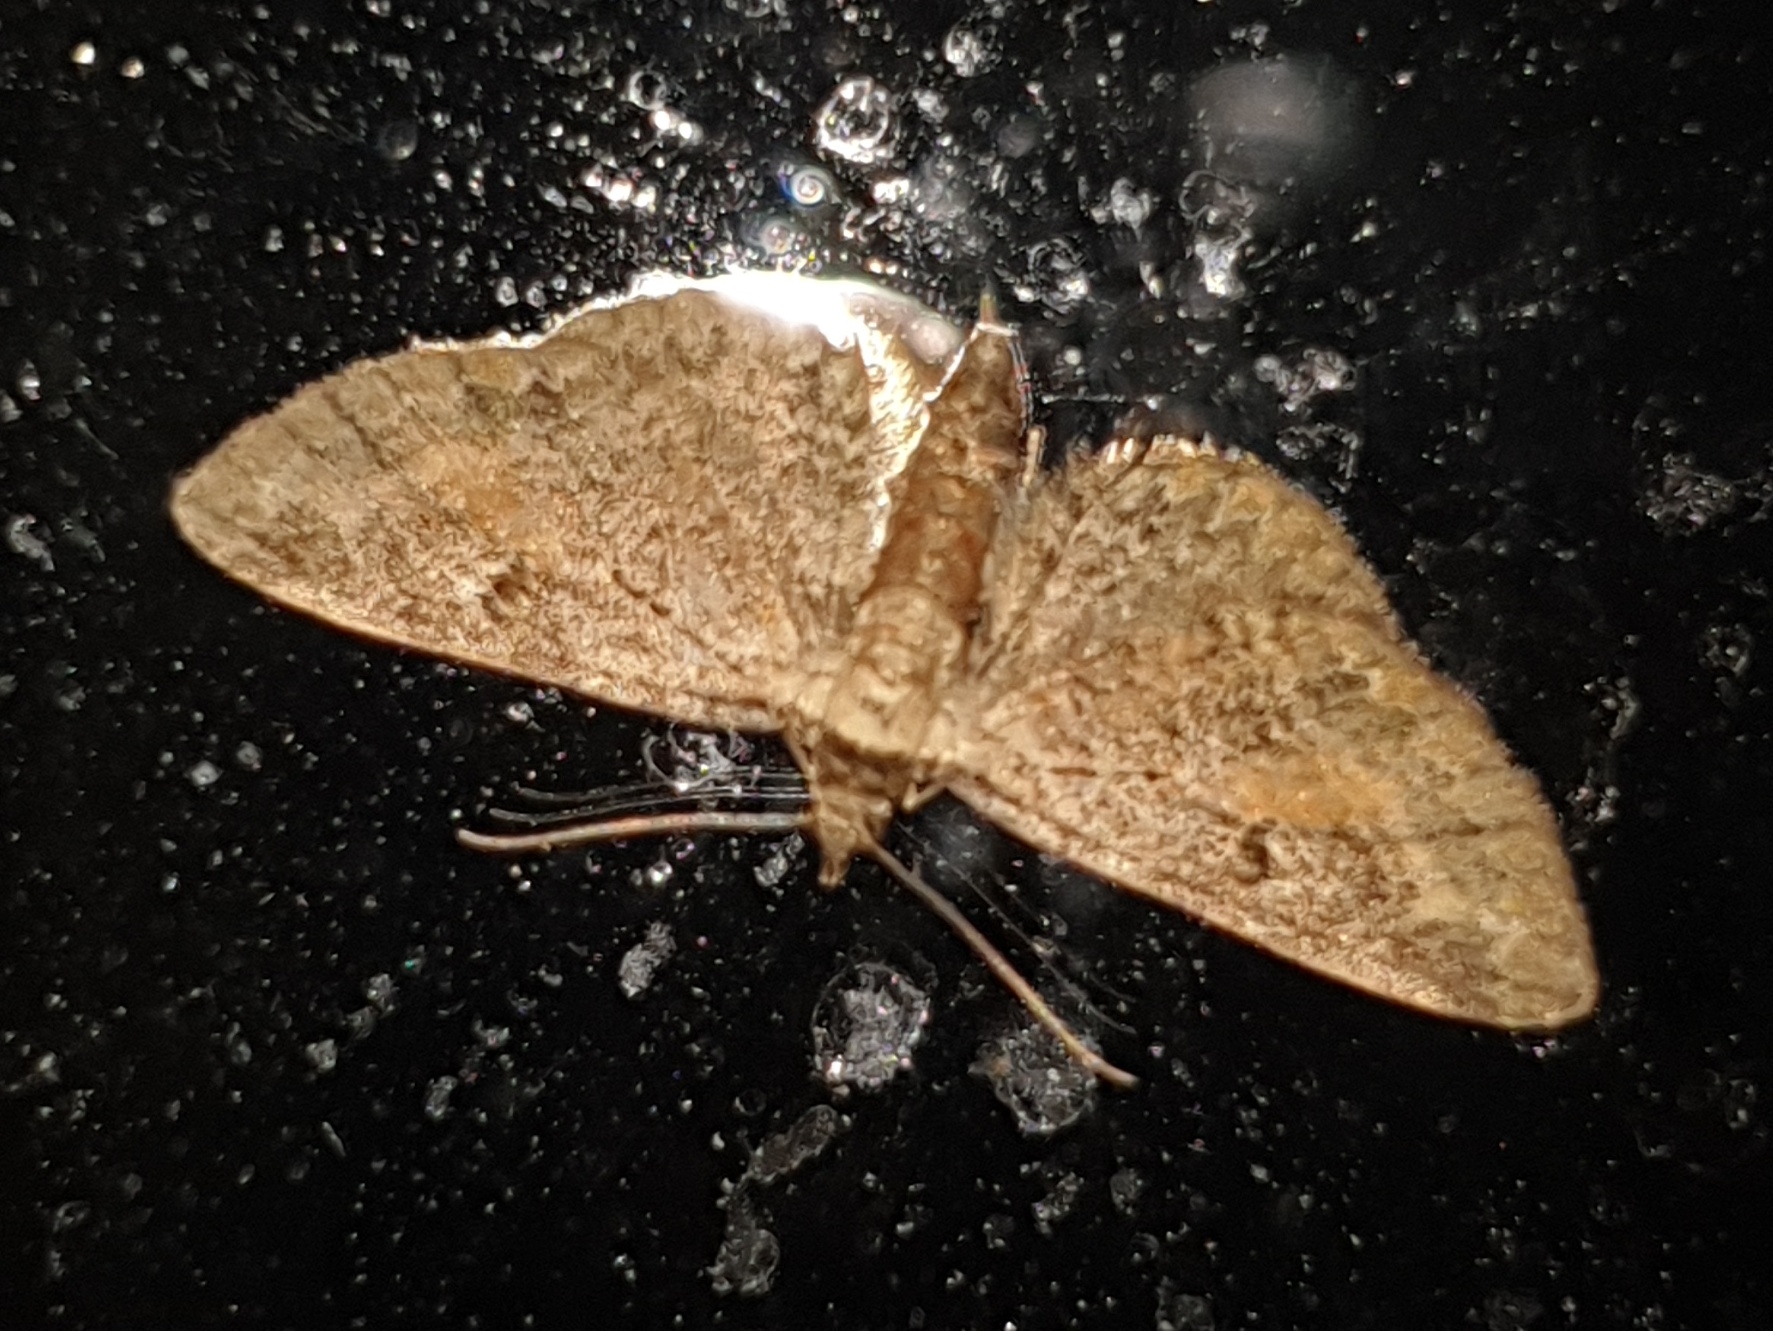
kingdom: Animalia
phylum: Arthropoda
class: Insecta
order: Lepidoptera
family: Geometridae
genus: Eupithecia
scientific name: Eupithecia icterata
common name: Tawny speckled pug
